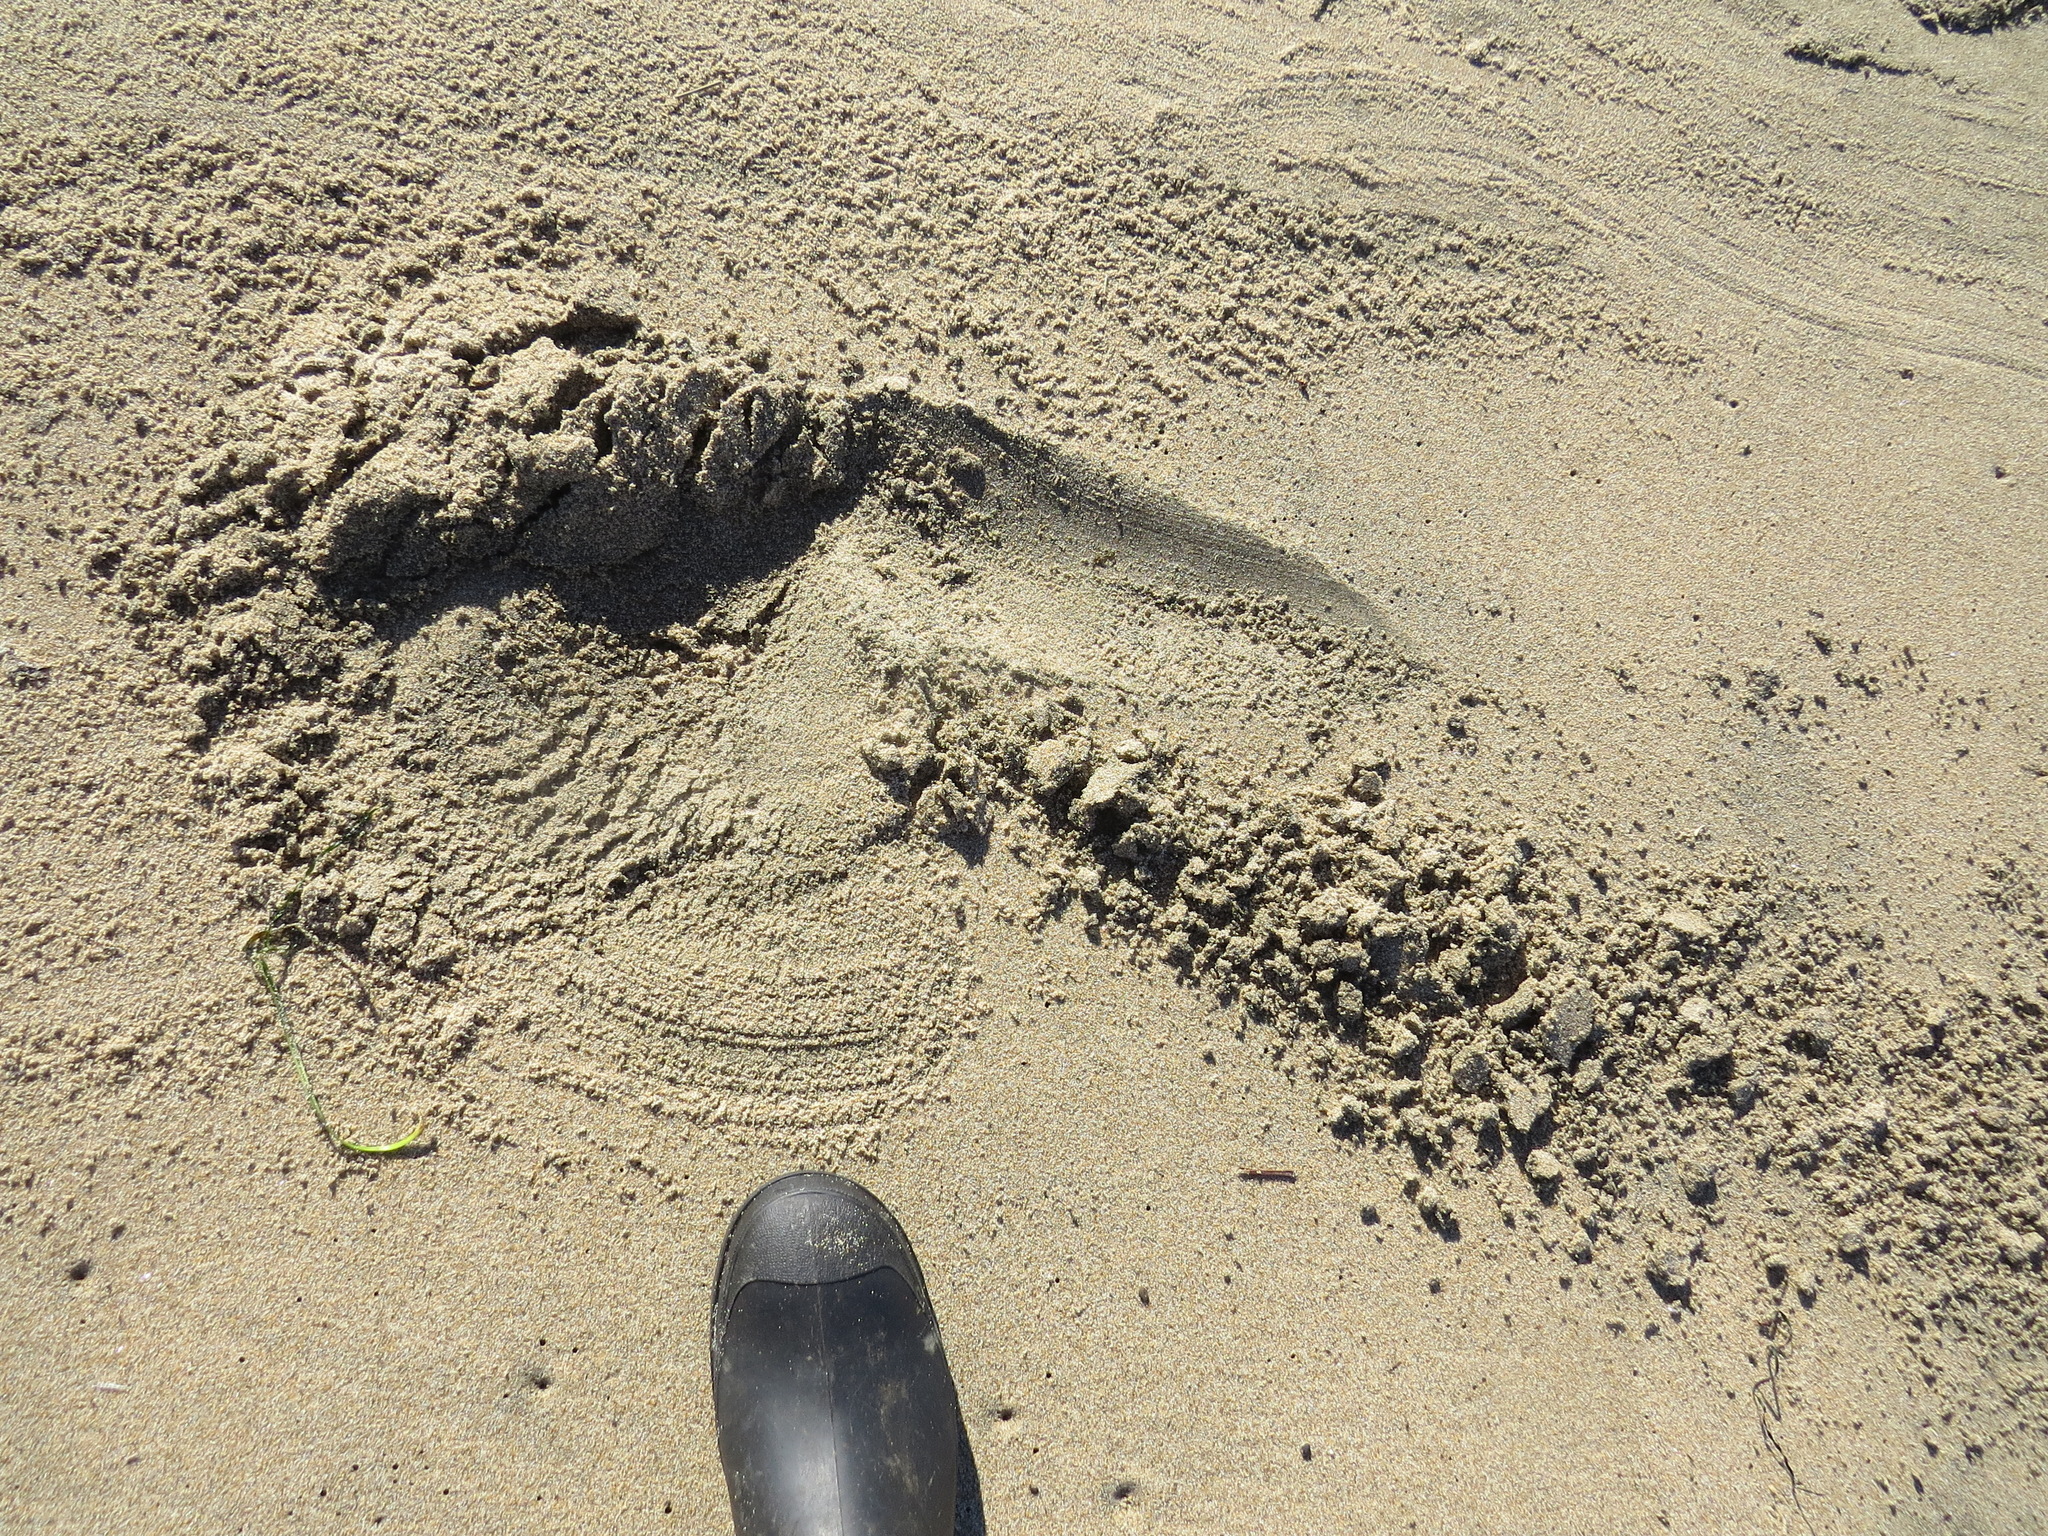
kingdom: Animalia
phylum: Chordata
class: Mammalia
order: Carnivora
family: Phocidae
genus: Mirounga
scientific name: Mirounga angustirostris
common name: Northern elephant seal
